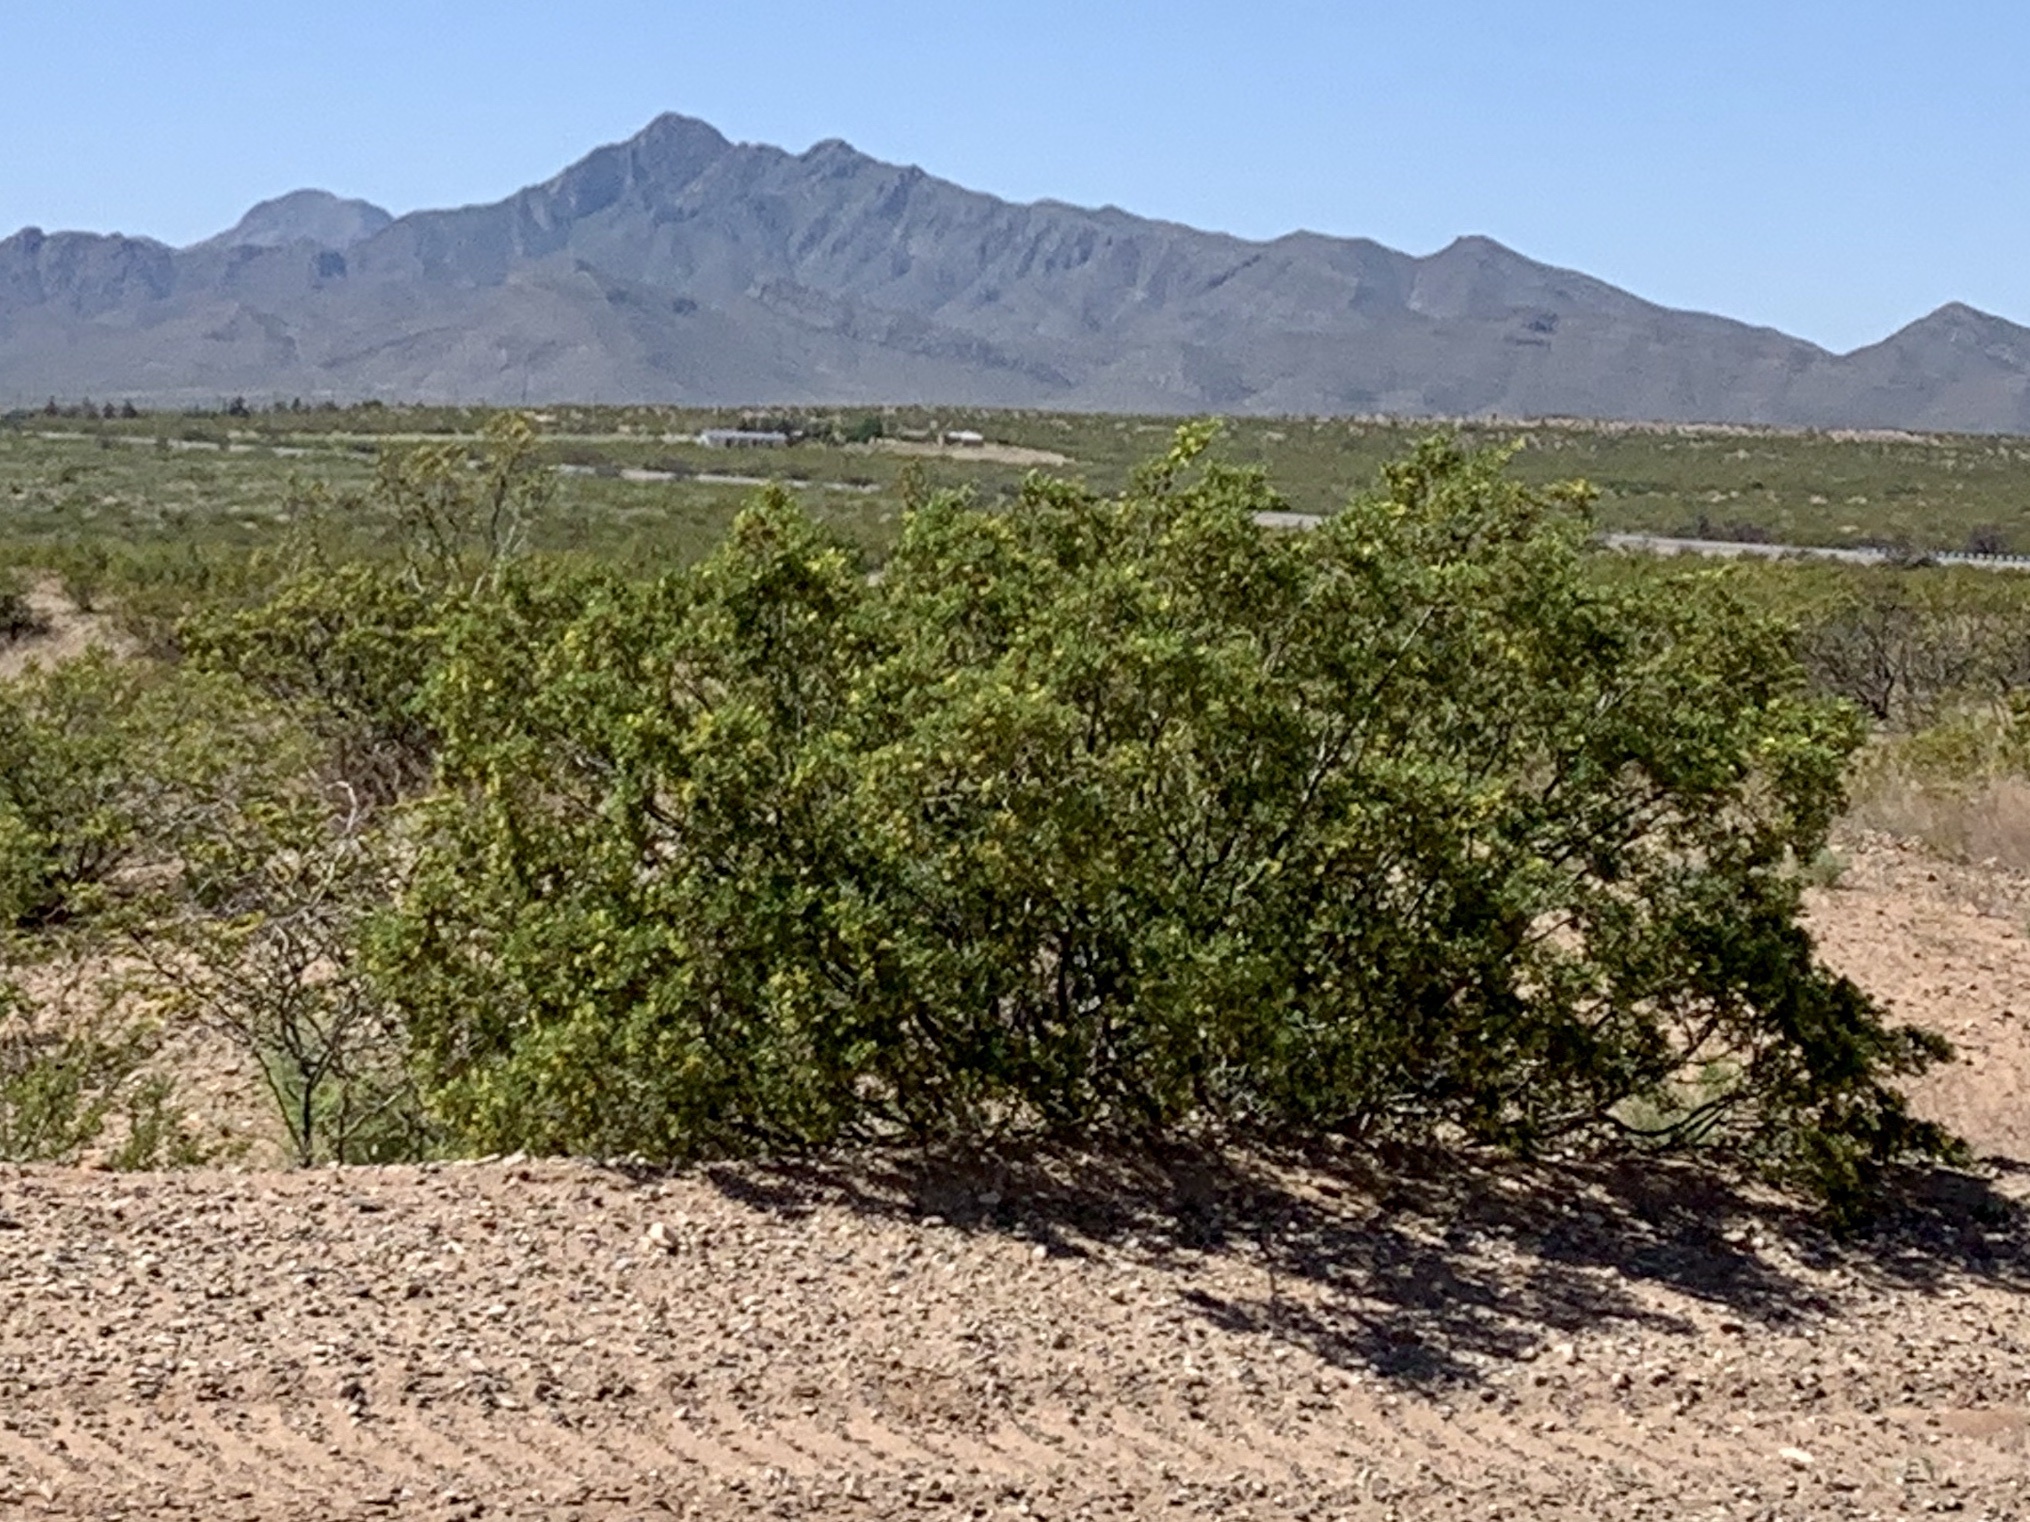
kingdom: Plantae
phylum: Tracheophyta
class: Magnoliopsida
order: Zygophyllales
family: Zygophyllaceae
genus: Larrea
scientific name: Larrea tridentata
